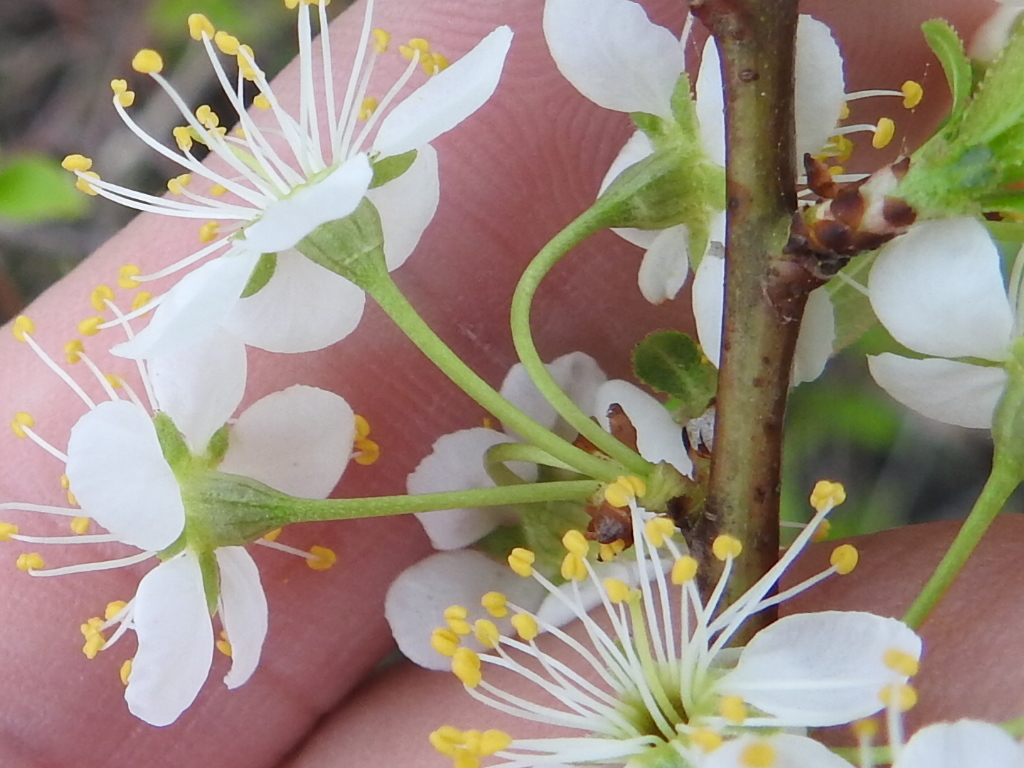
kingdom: Plantae
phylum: Tracheophyta
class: Magnoliopsida
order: Rosales
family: Rosaceae
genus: Prunus
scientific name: Prunus rivularis
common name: Creek plum
